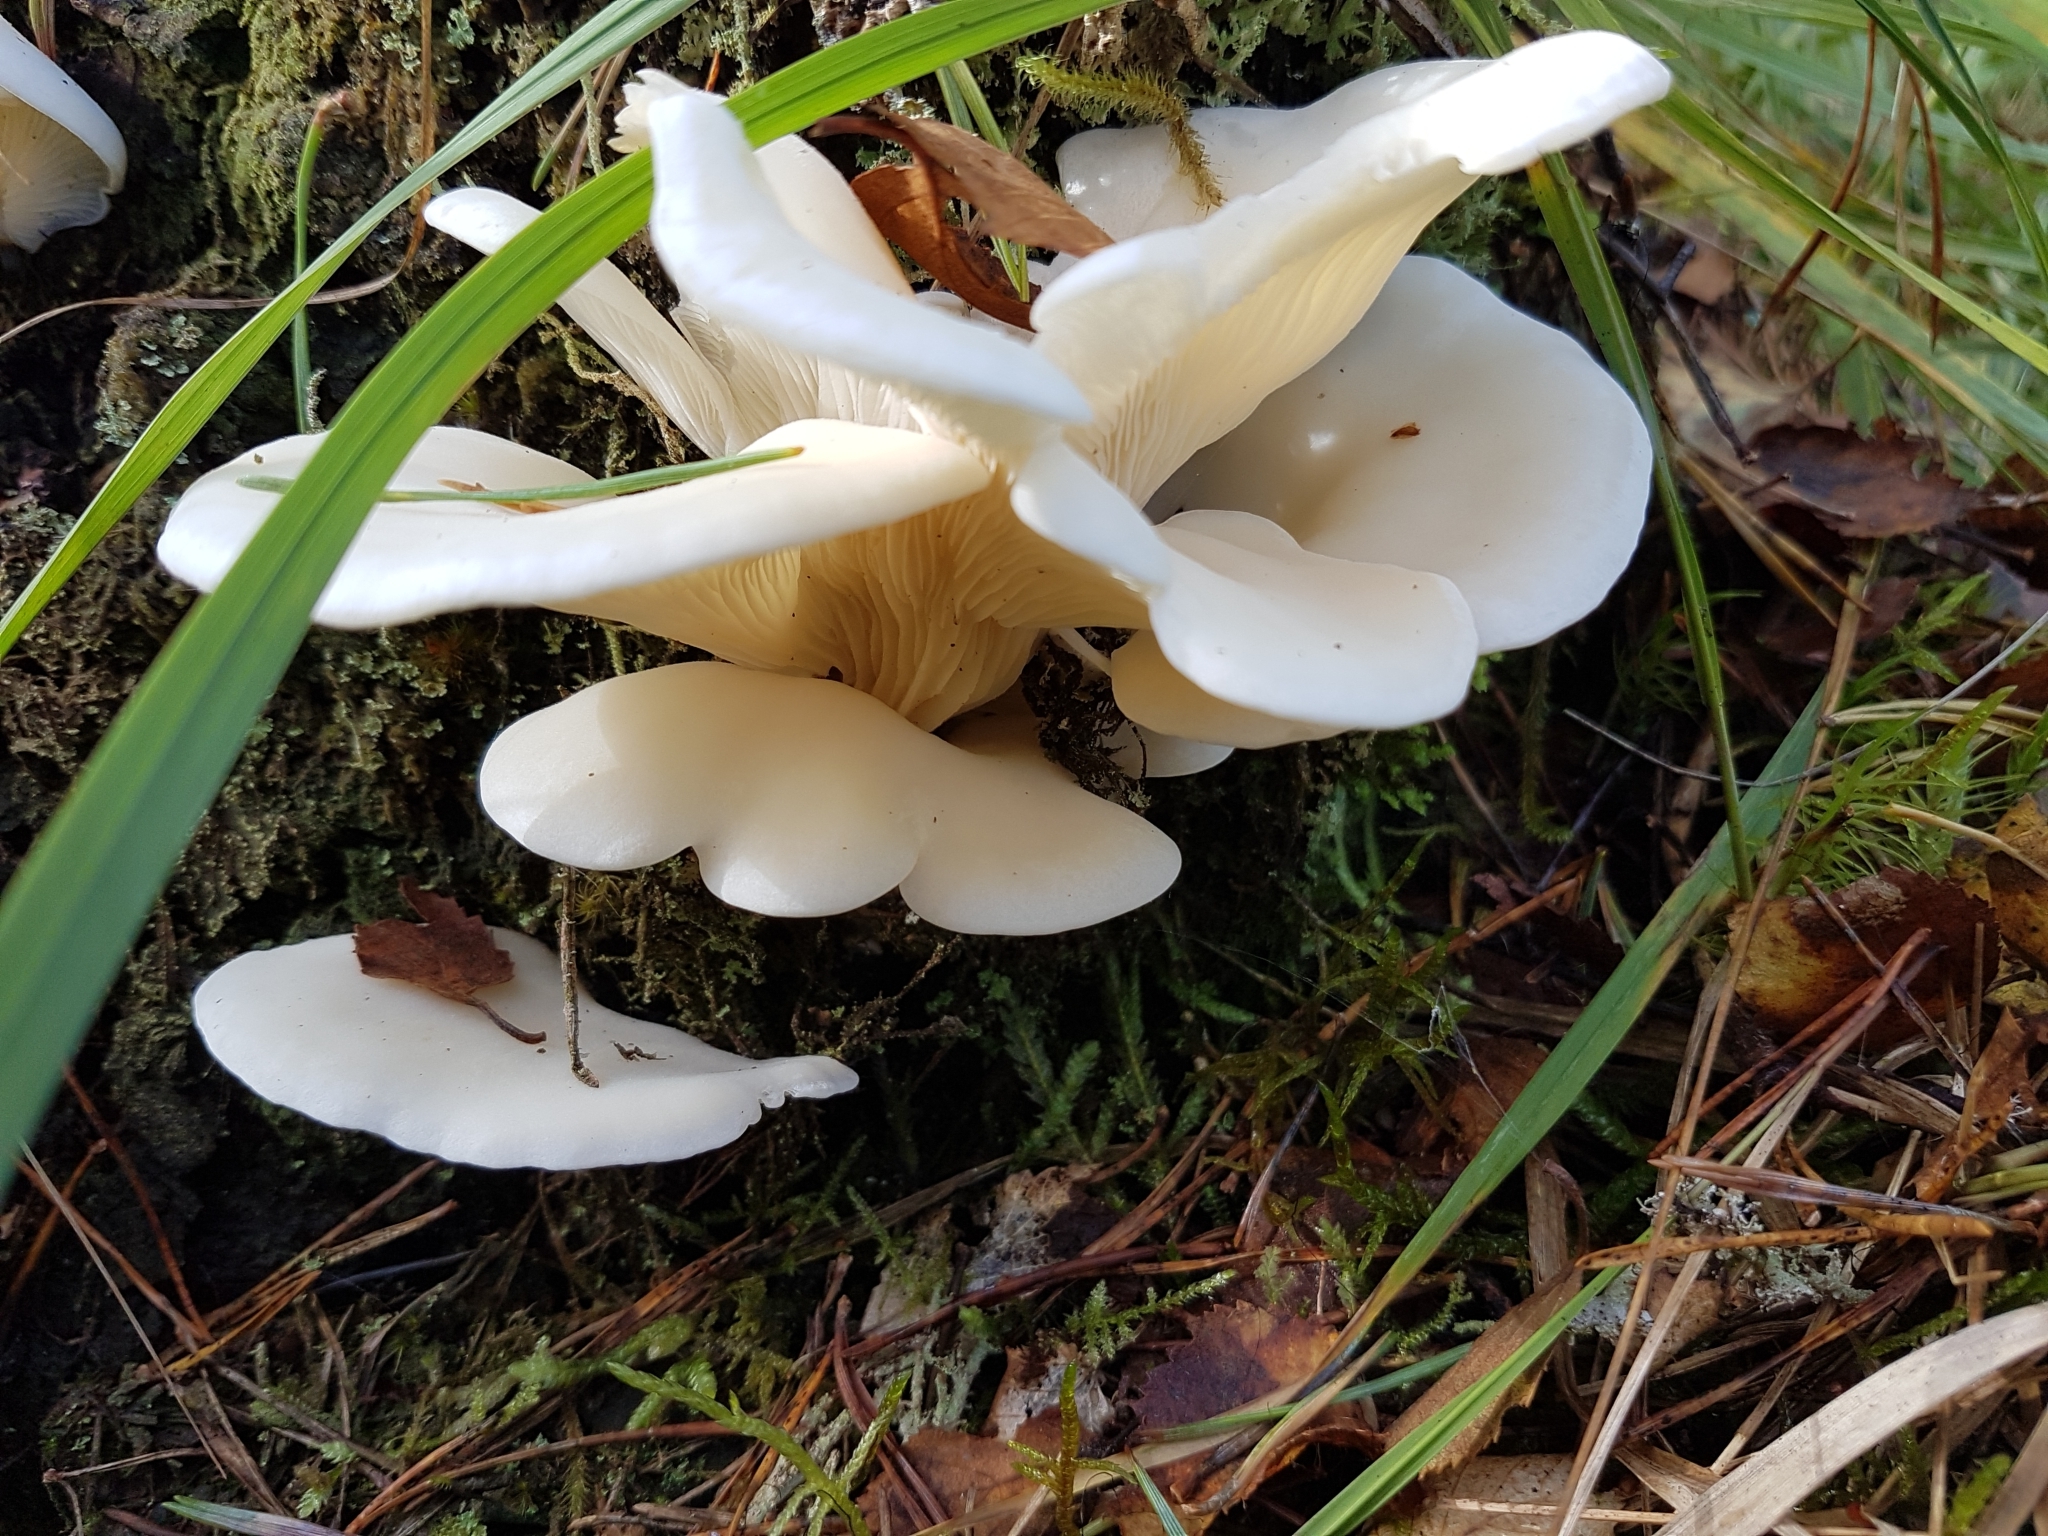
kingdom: Fungi
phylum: Basidiomycota
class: Agaricomycetes
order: Agaricales
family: Marasmiaceae
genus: Pleurocybella
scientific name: Pleurocybella porrigens
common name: Angel's wings
